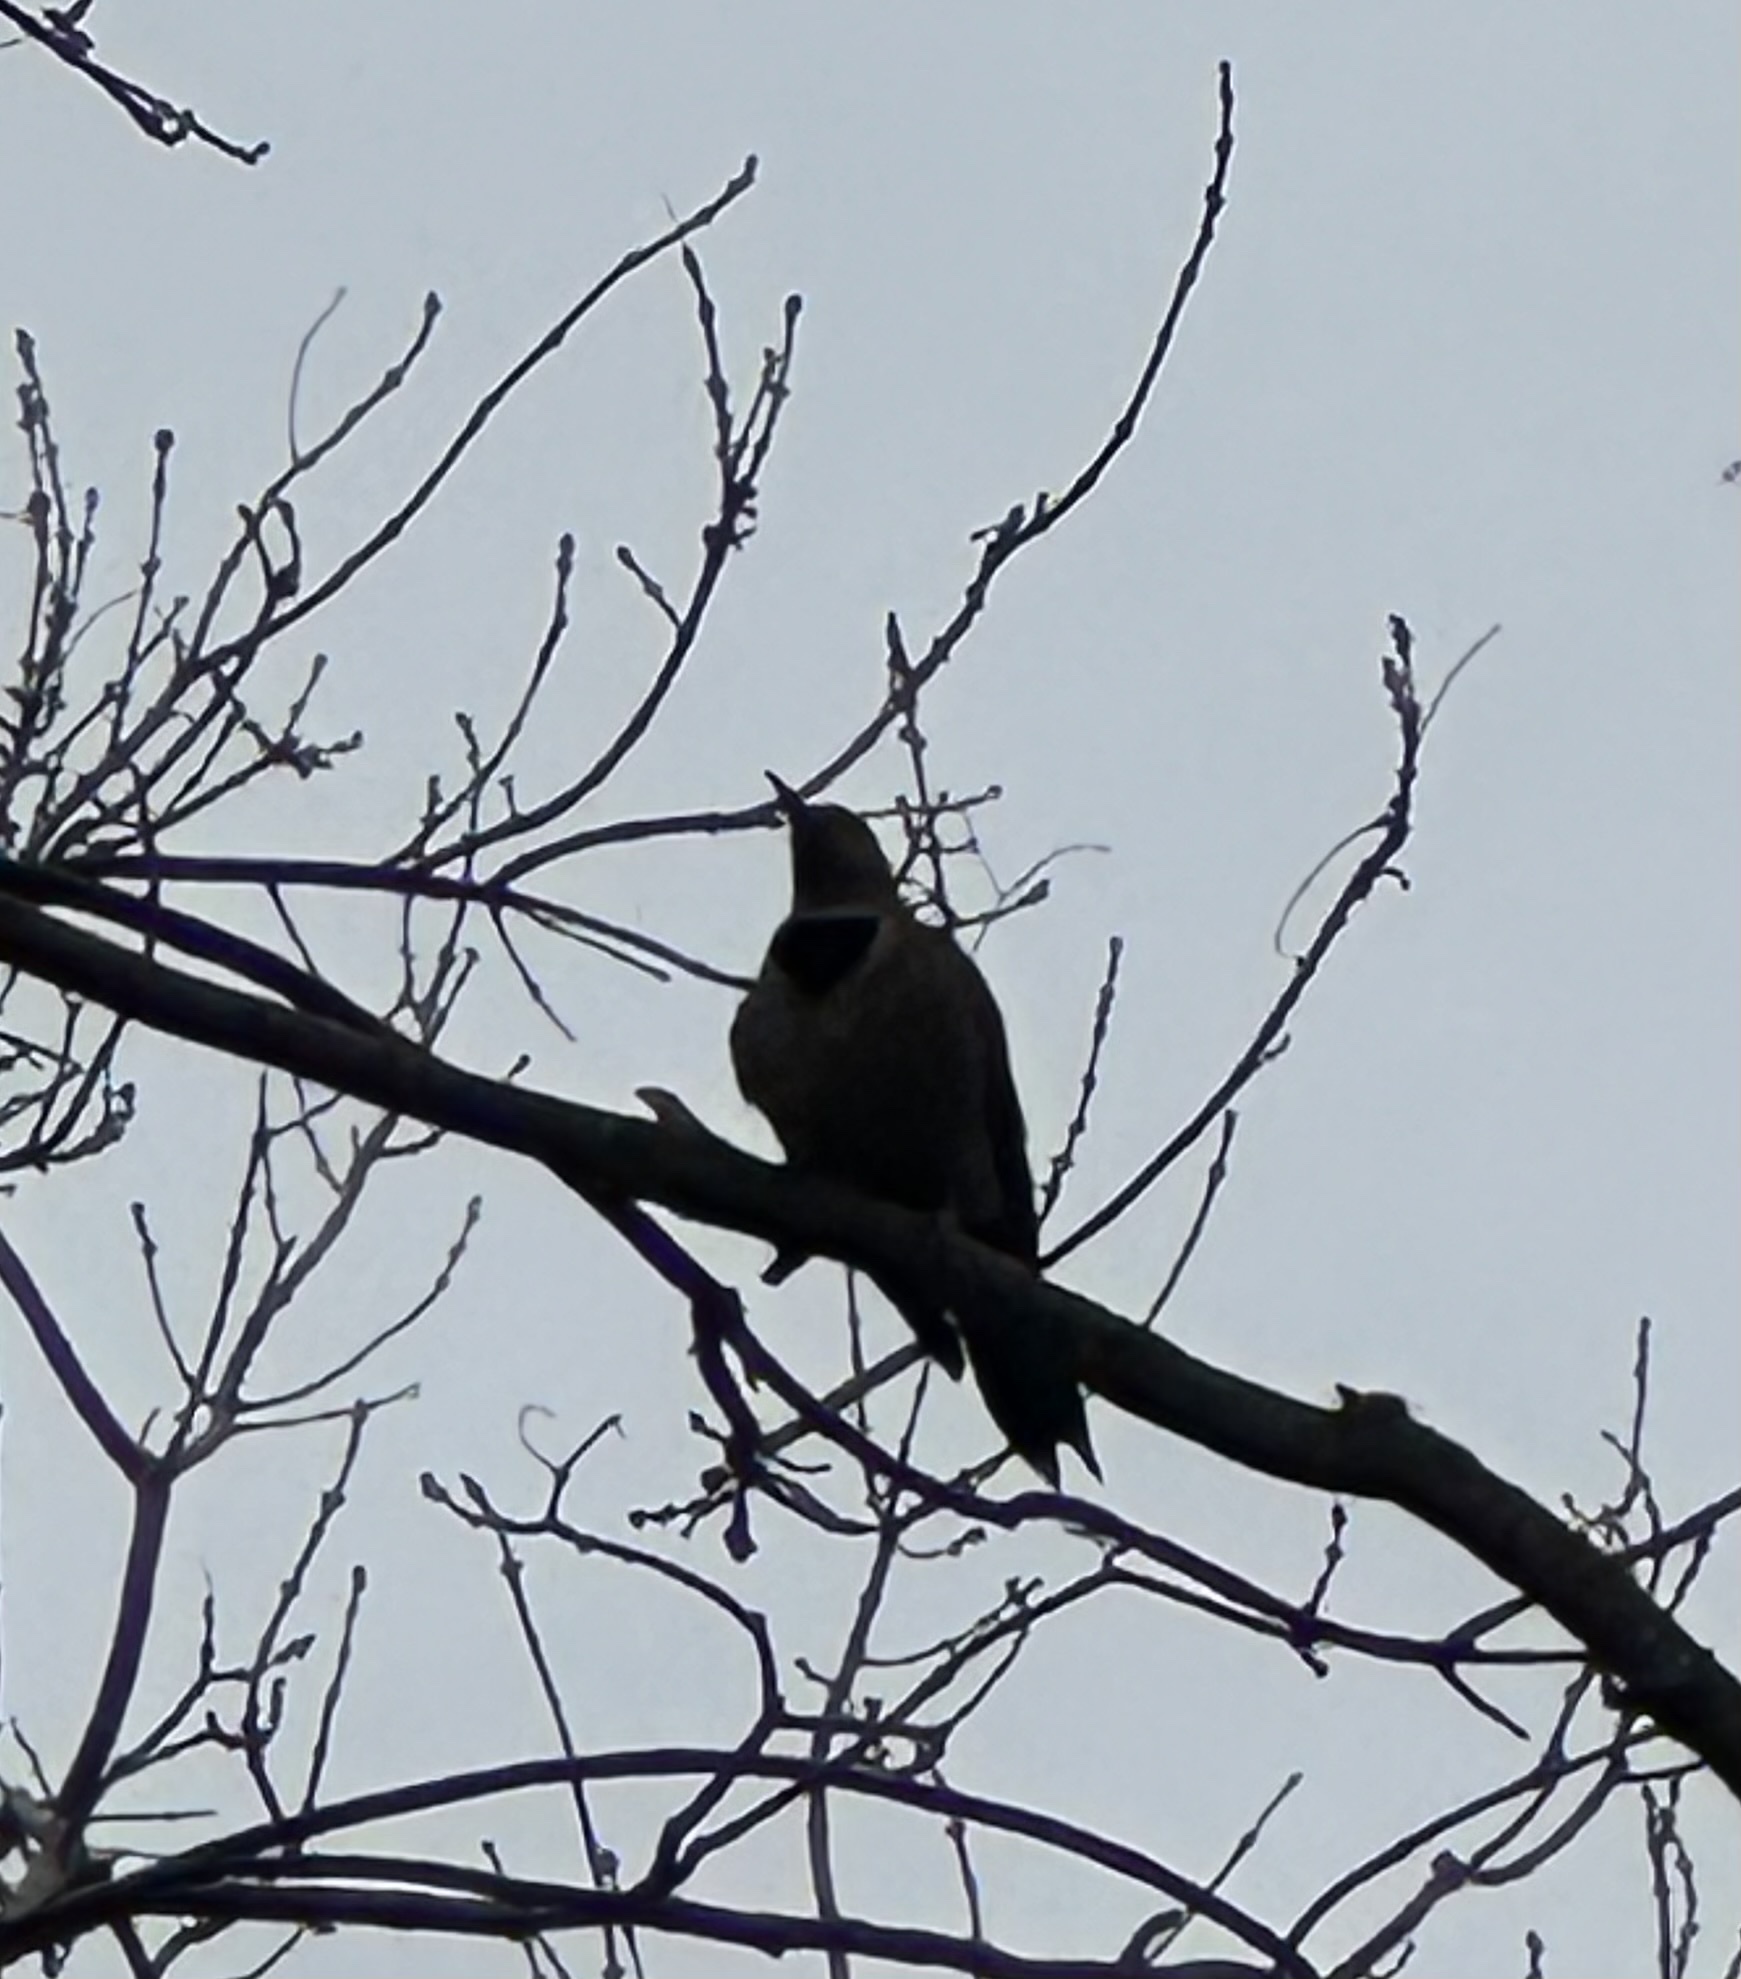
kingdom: Animalia
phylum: Chordata
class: Aves
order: Piciformes
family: Picidae
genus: Colaptes
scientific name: Colaptes auratus
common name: Northern flicker
